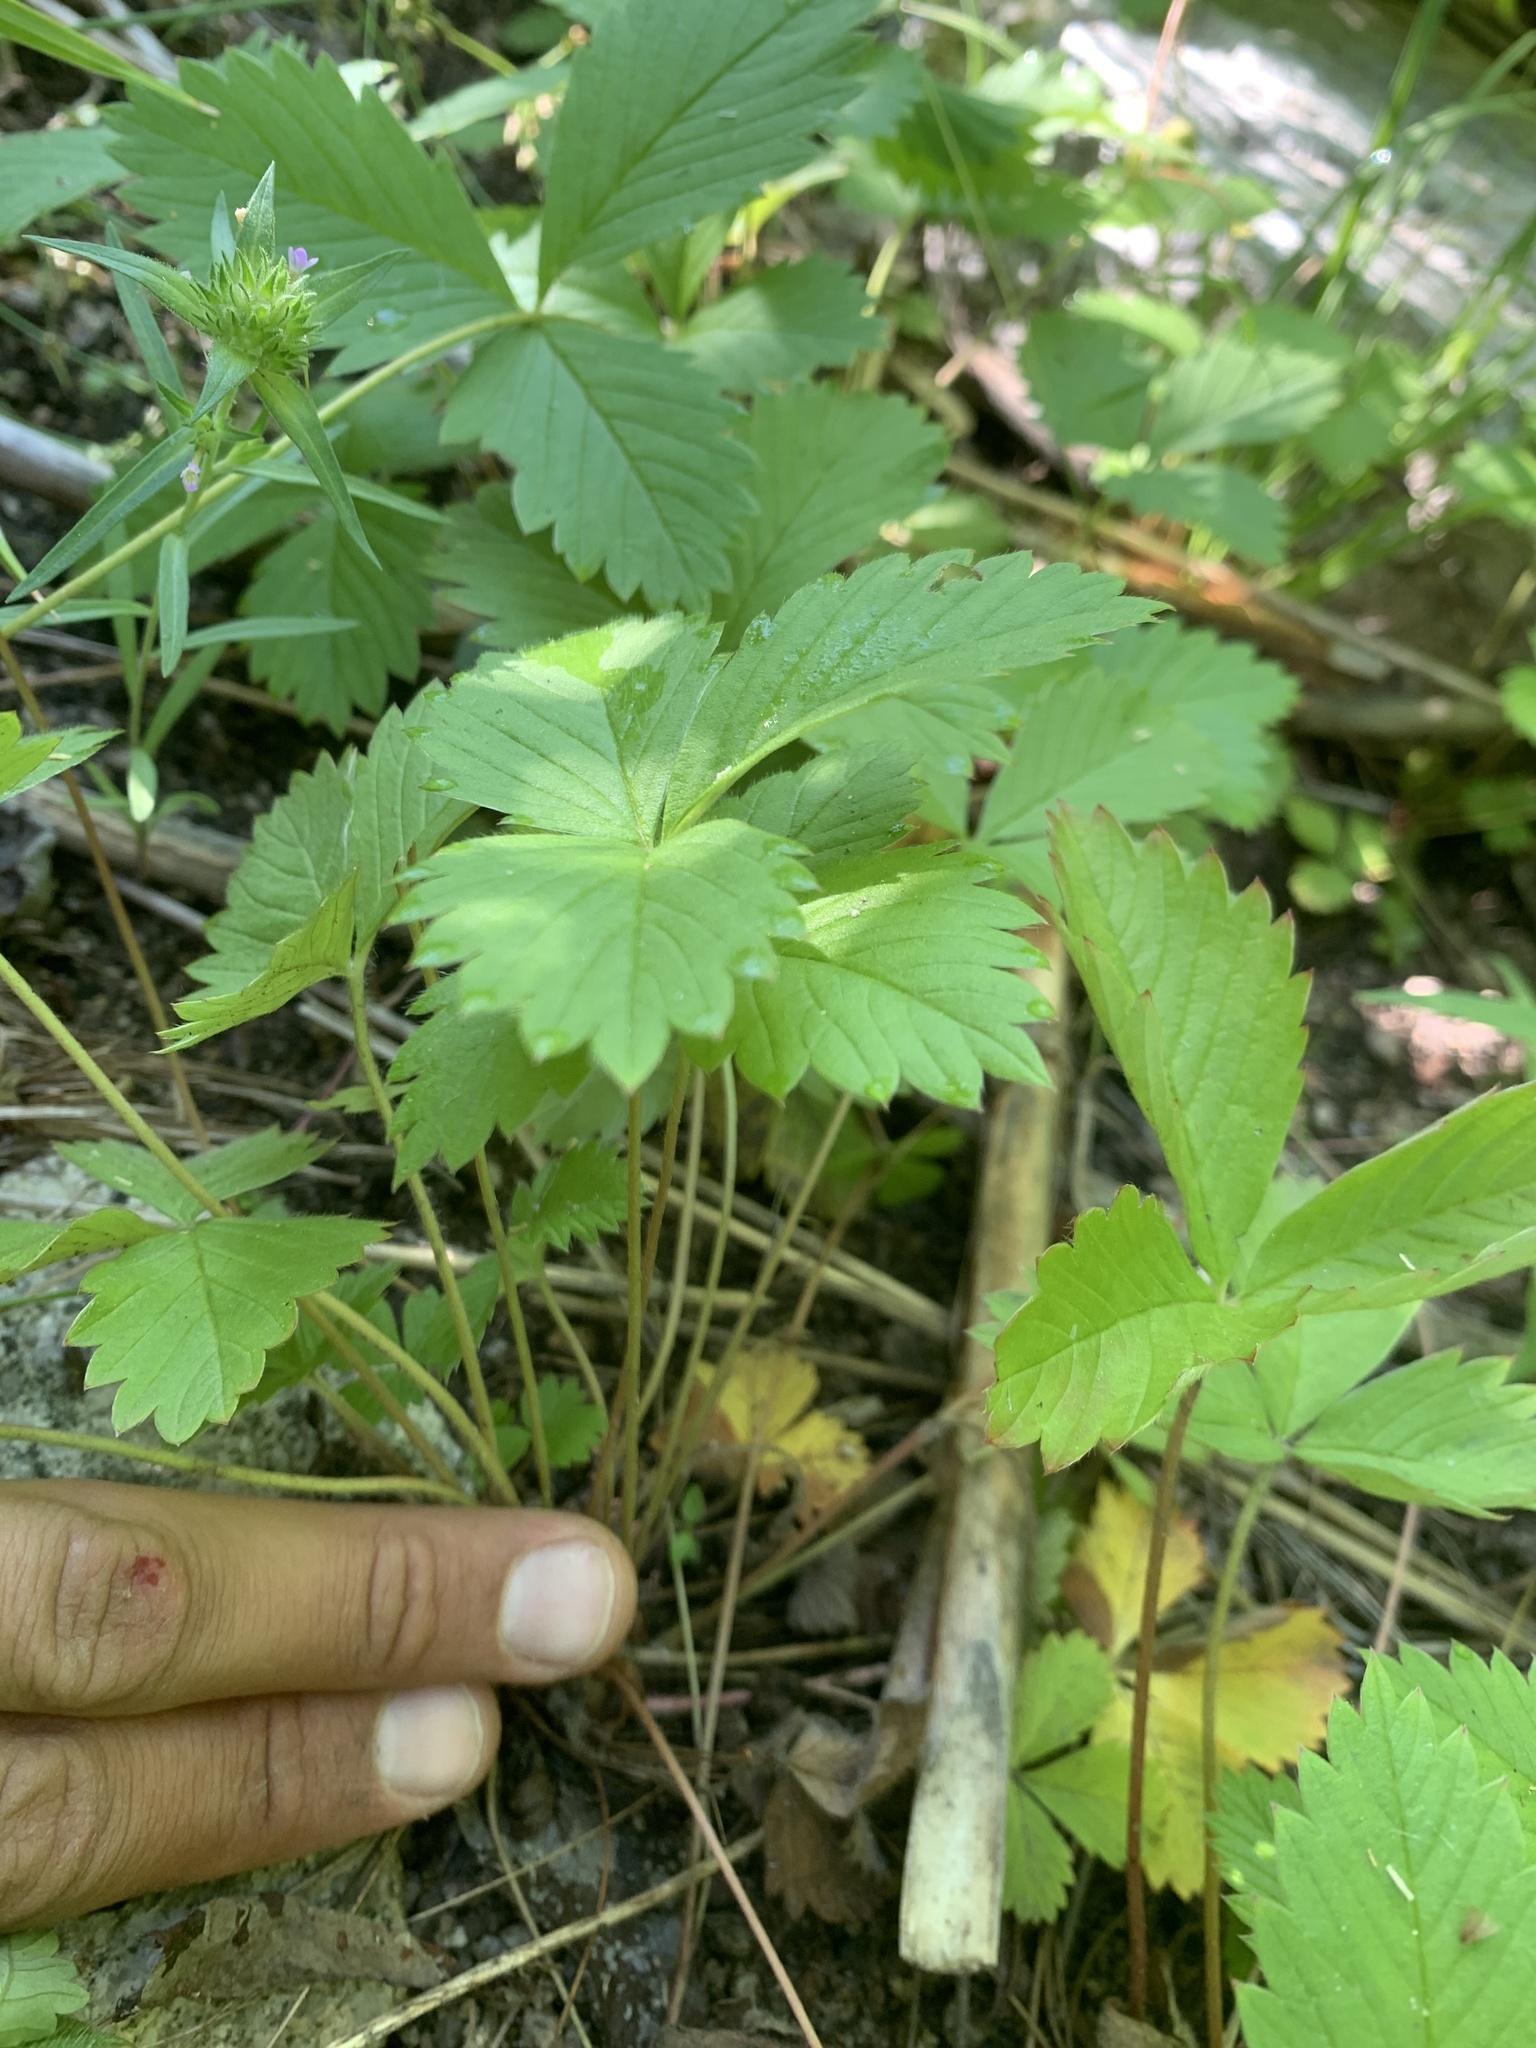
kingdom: Plantae
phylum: Tracheophyta
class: Magnoliopsida
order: Rosales
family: Rosaceae
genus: Fragaria
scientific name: Fragaria vesca
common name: Wild strawberry
